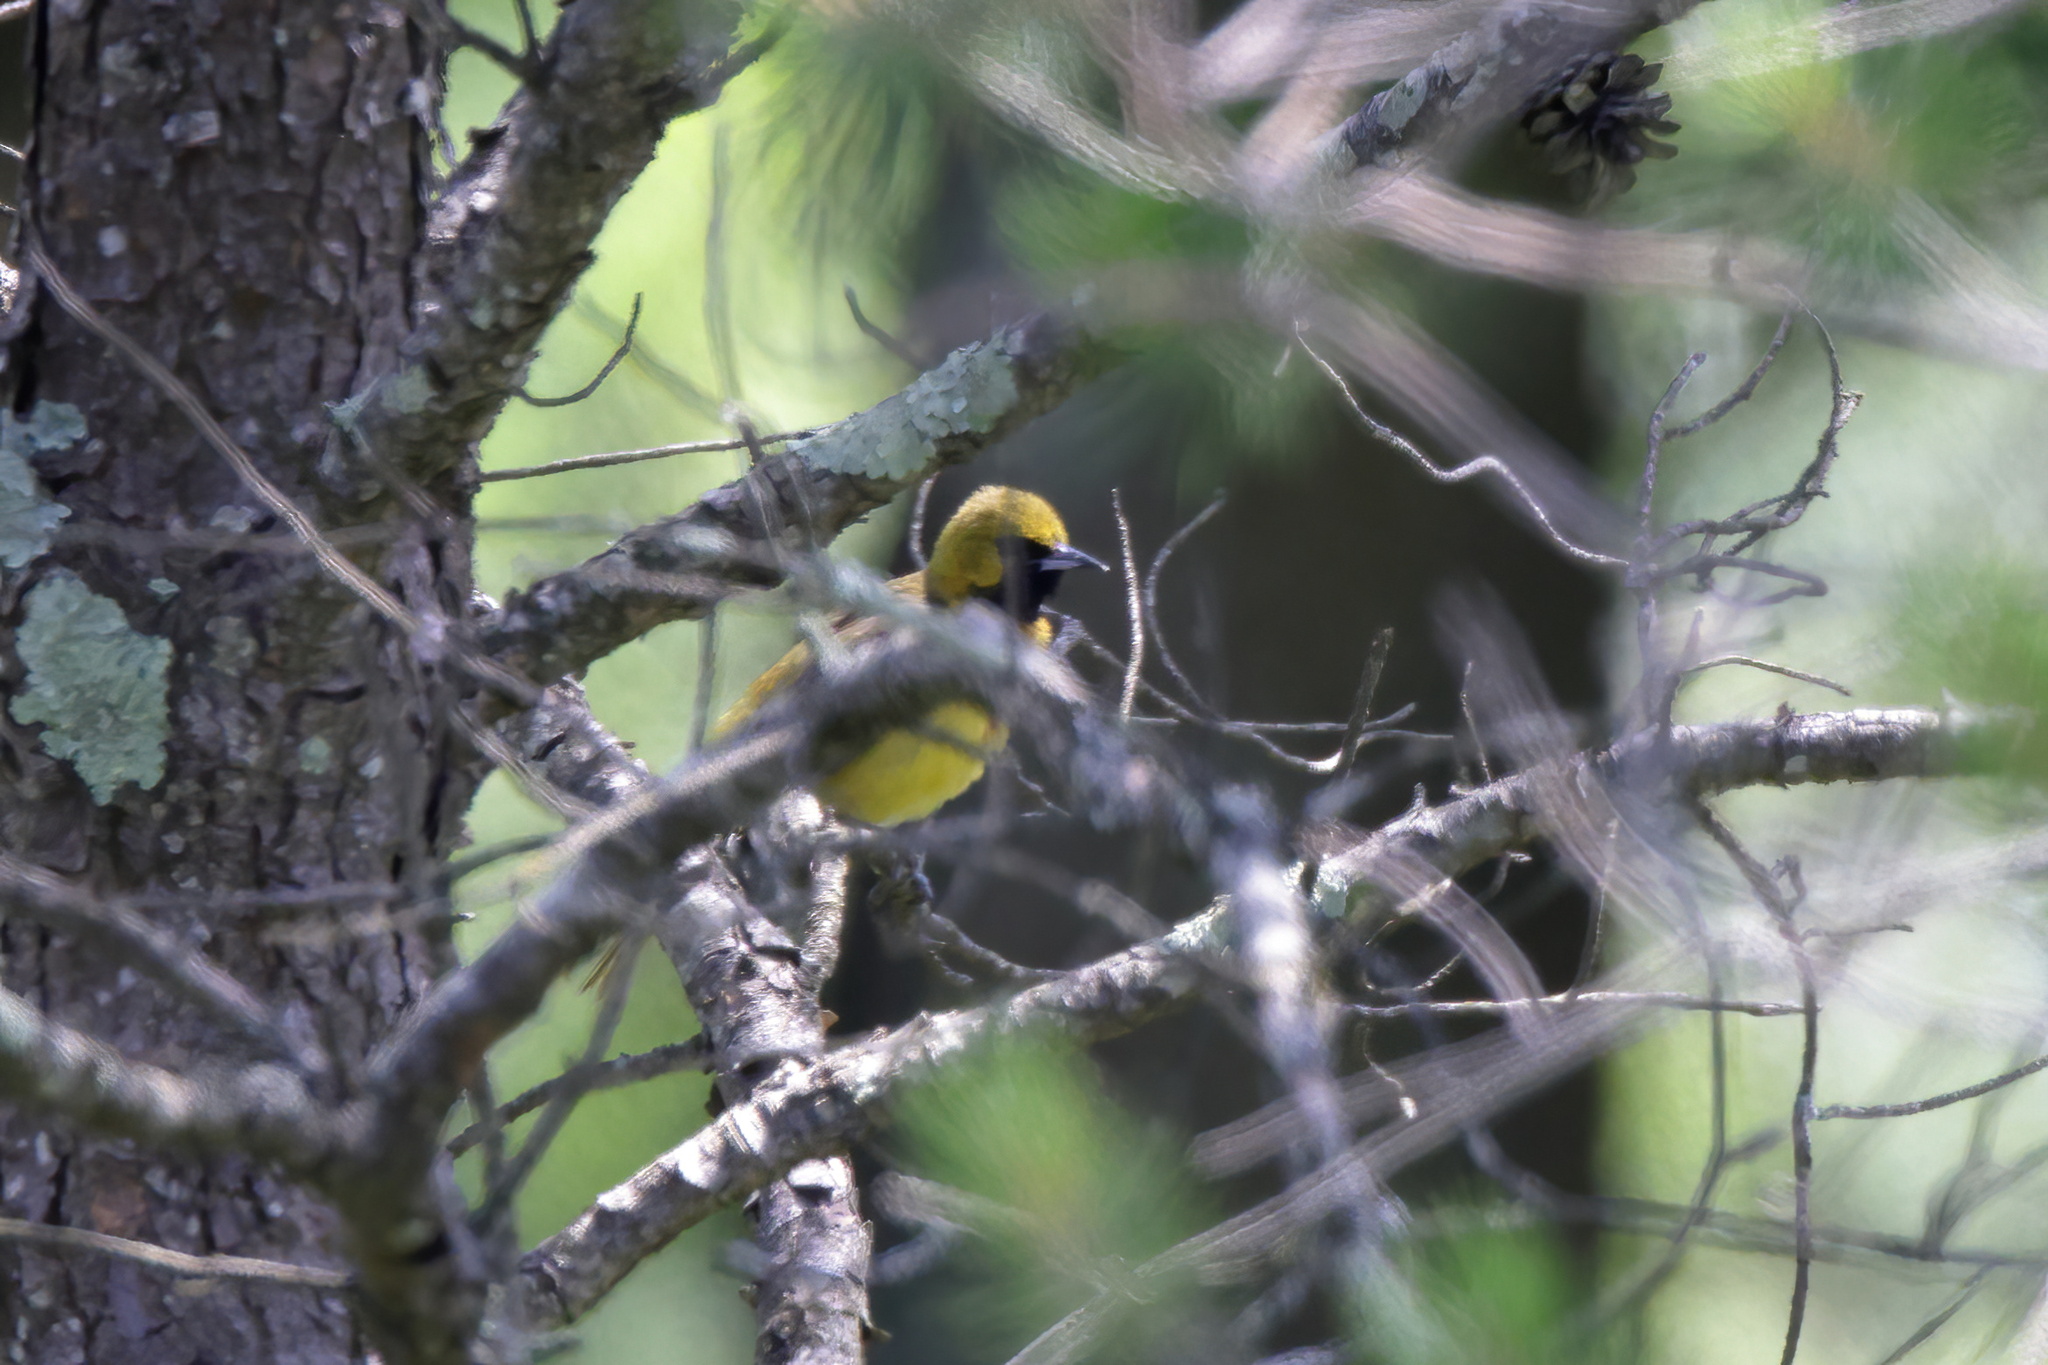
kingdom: Animalia
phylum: Chordata
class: Aves
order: Passeriformes
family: Icteridae
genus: Icterus
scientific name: Icterus spurius
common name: Orchard oriole
